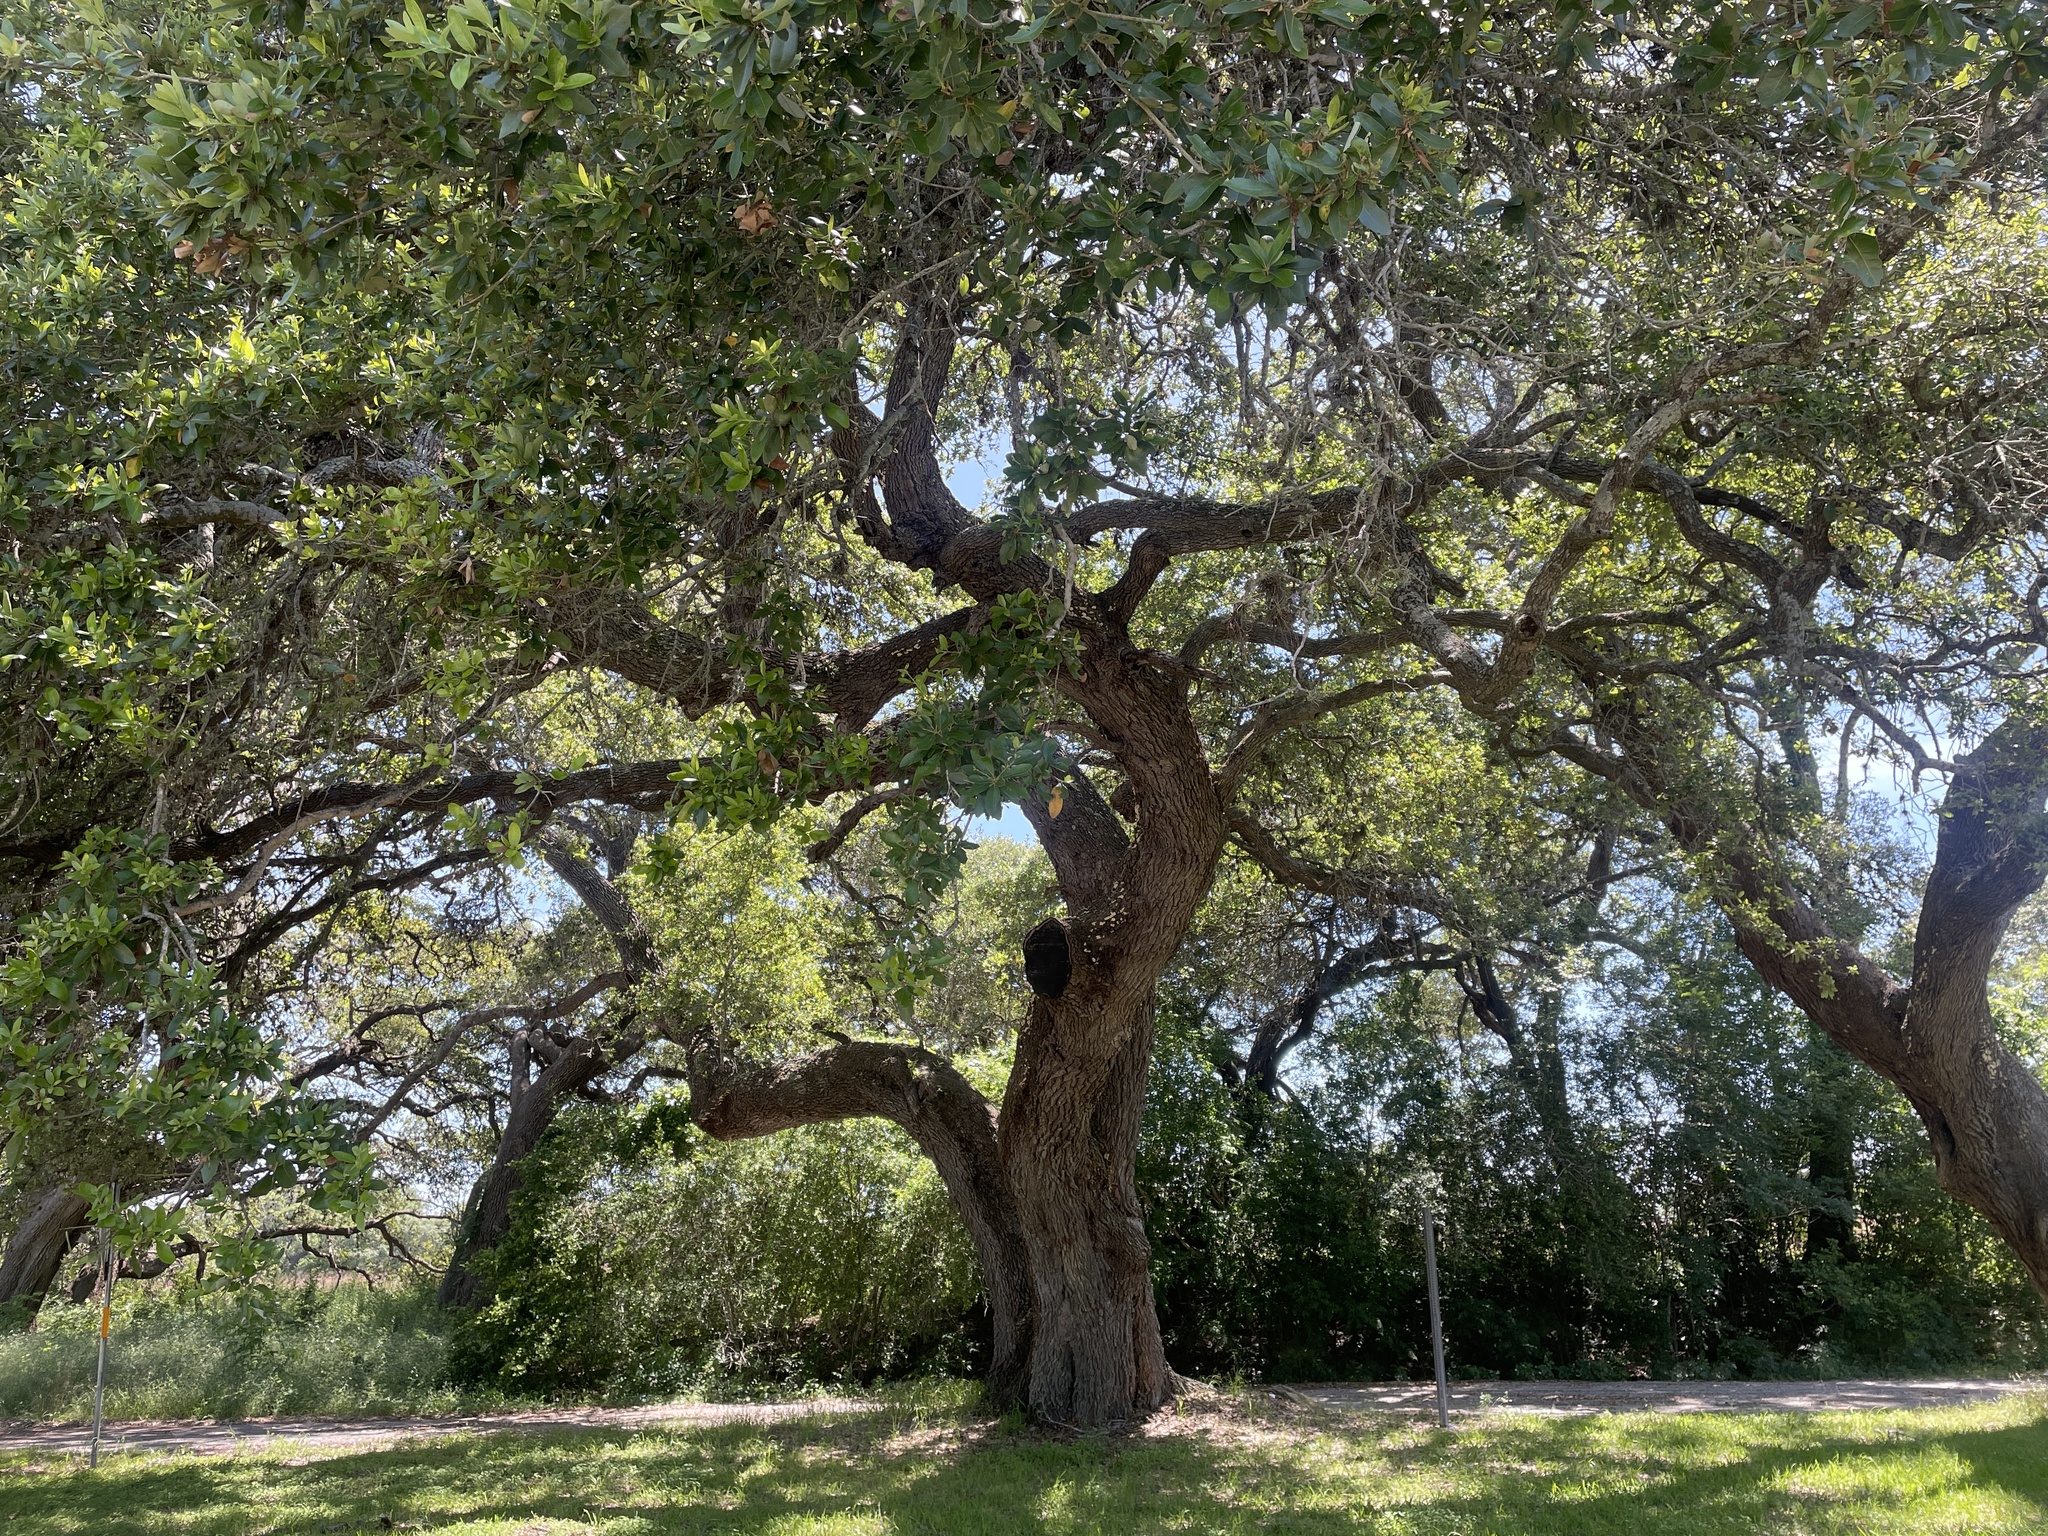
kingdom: Plantae
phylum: Tracheophyta
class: Magnoliopsida
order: Fagales
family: Fagaceae
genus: Quercus
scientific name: Quercus fusiformis
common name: Texas live oak
